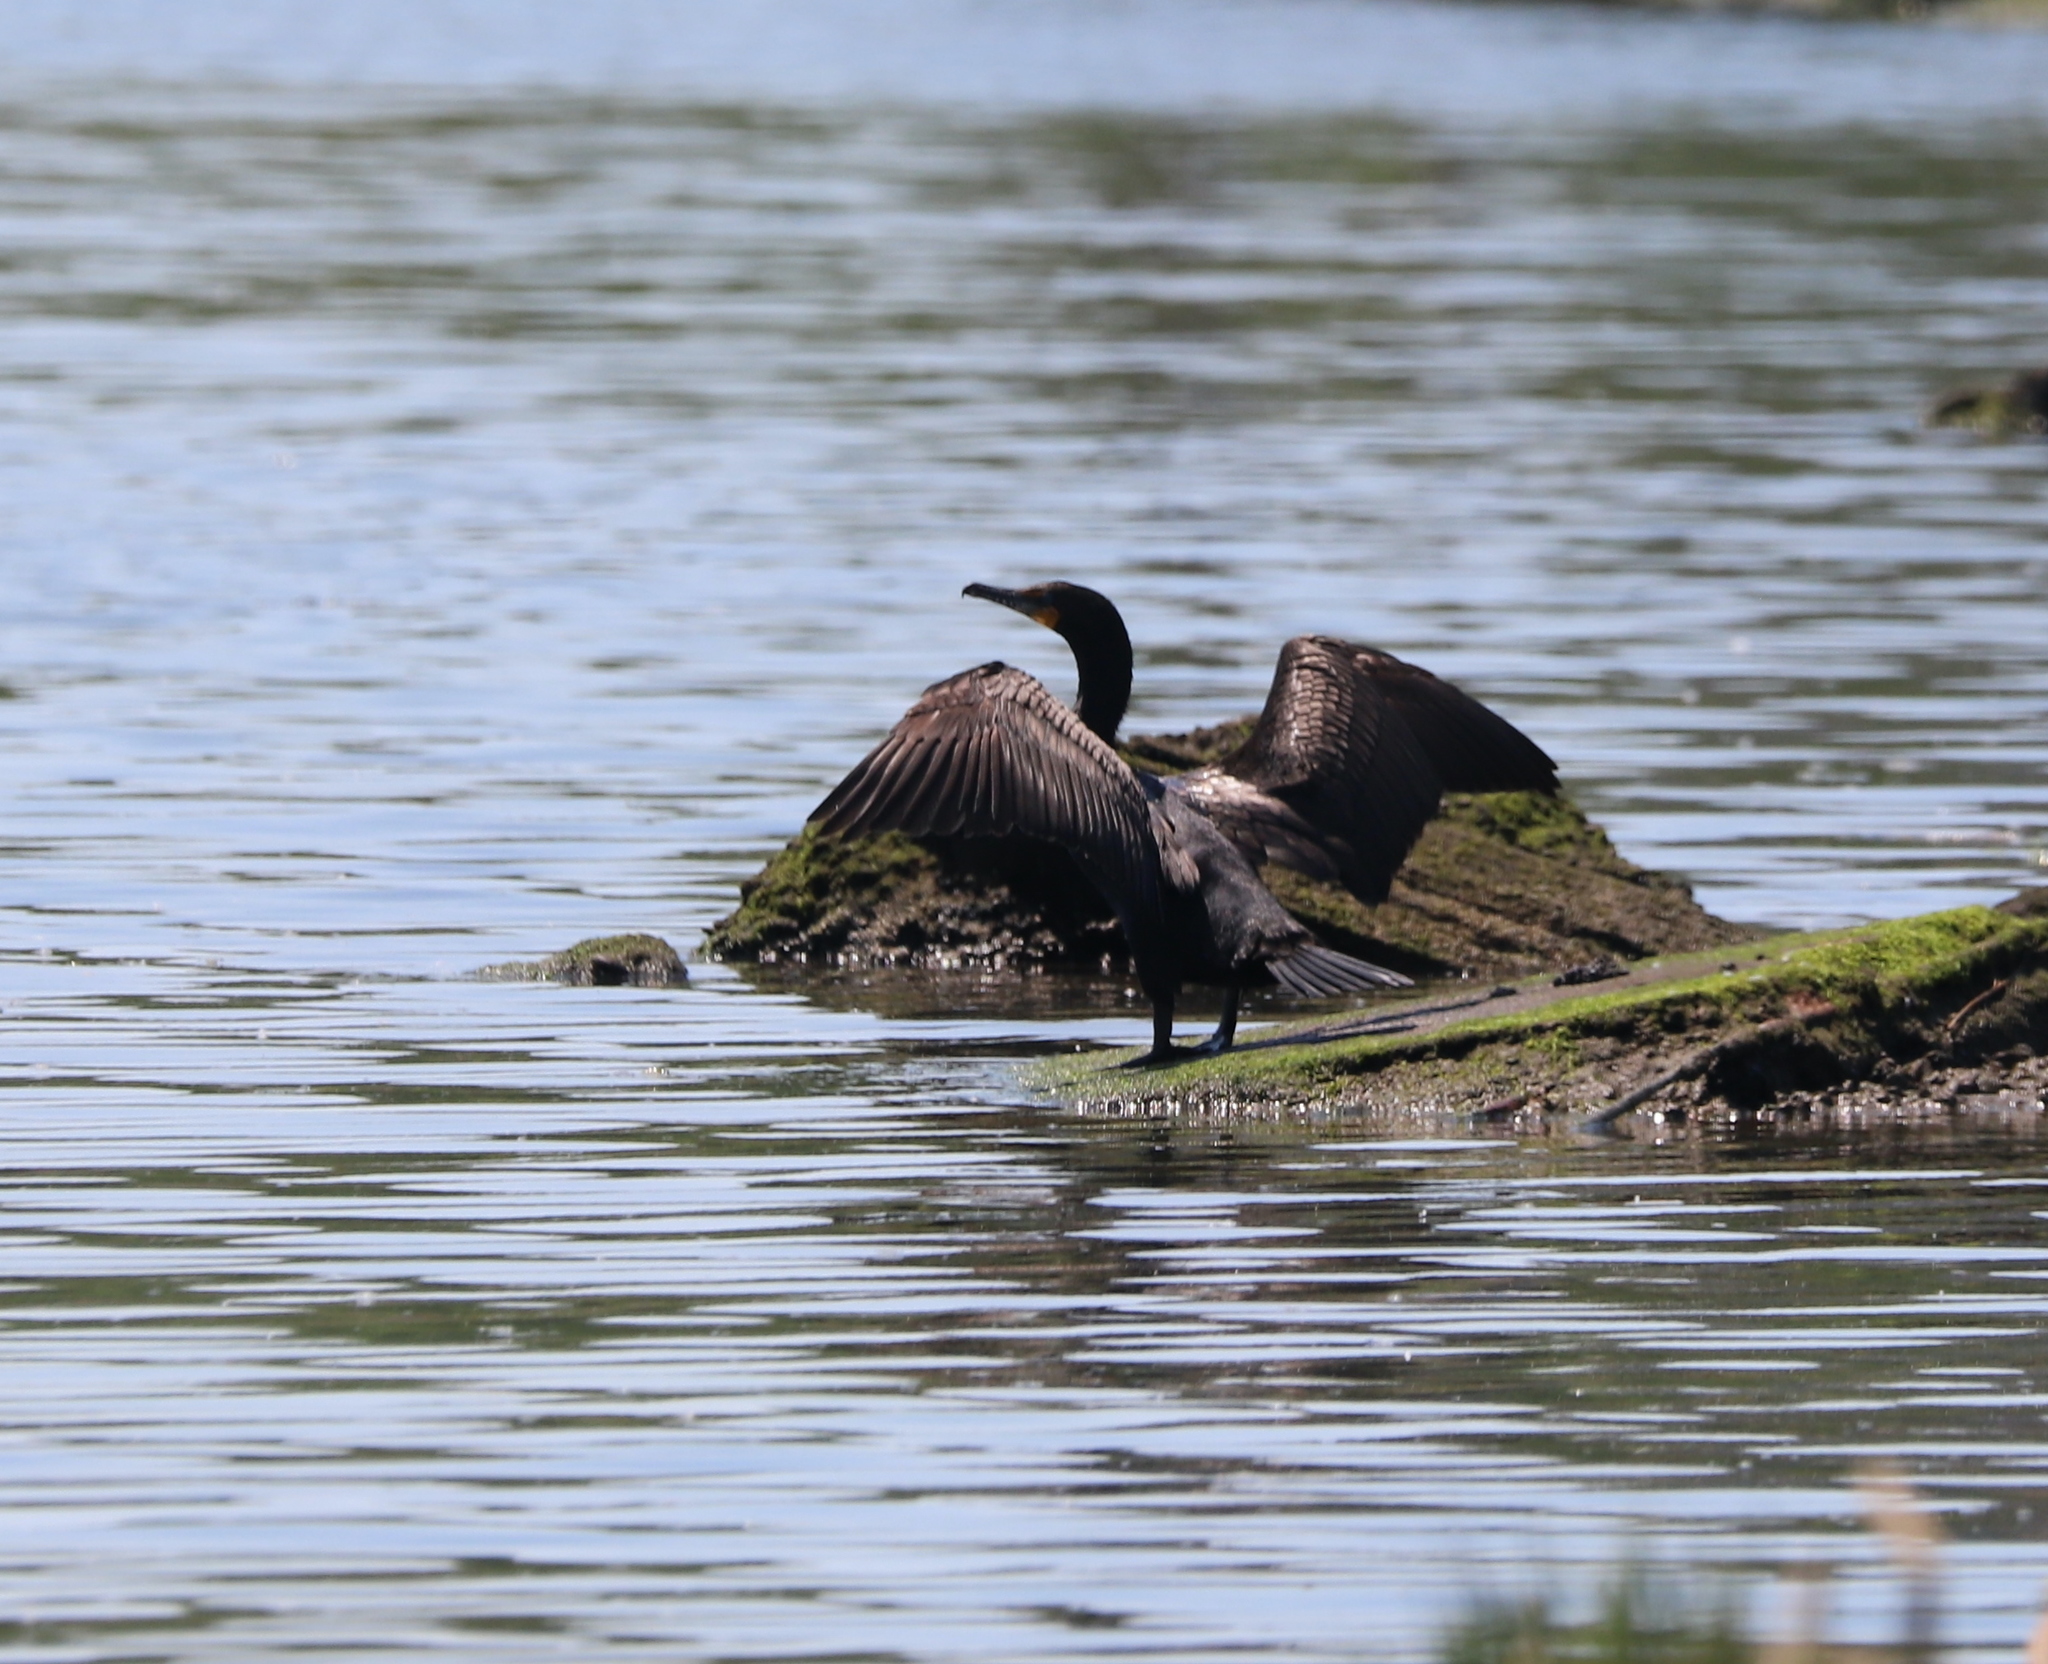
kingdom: Animalia
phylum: Chordata
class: Aves
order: Suliformes
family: Phalacrocoracidae
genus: Phalacrocorax
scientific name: Phalacrocorax auritus
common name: Double-crested cormorant
